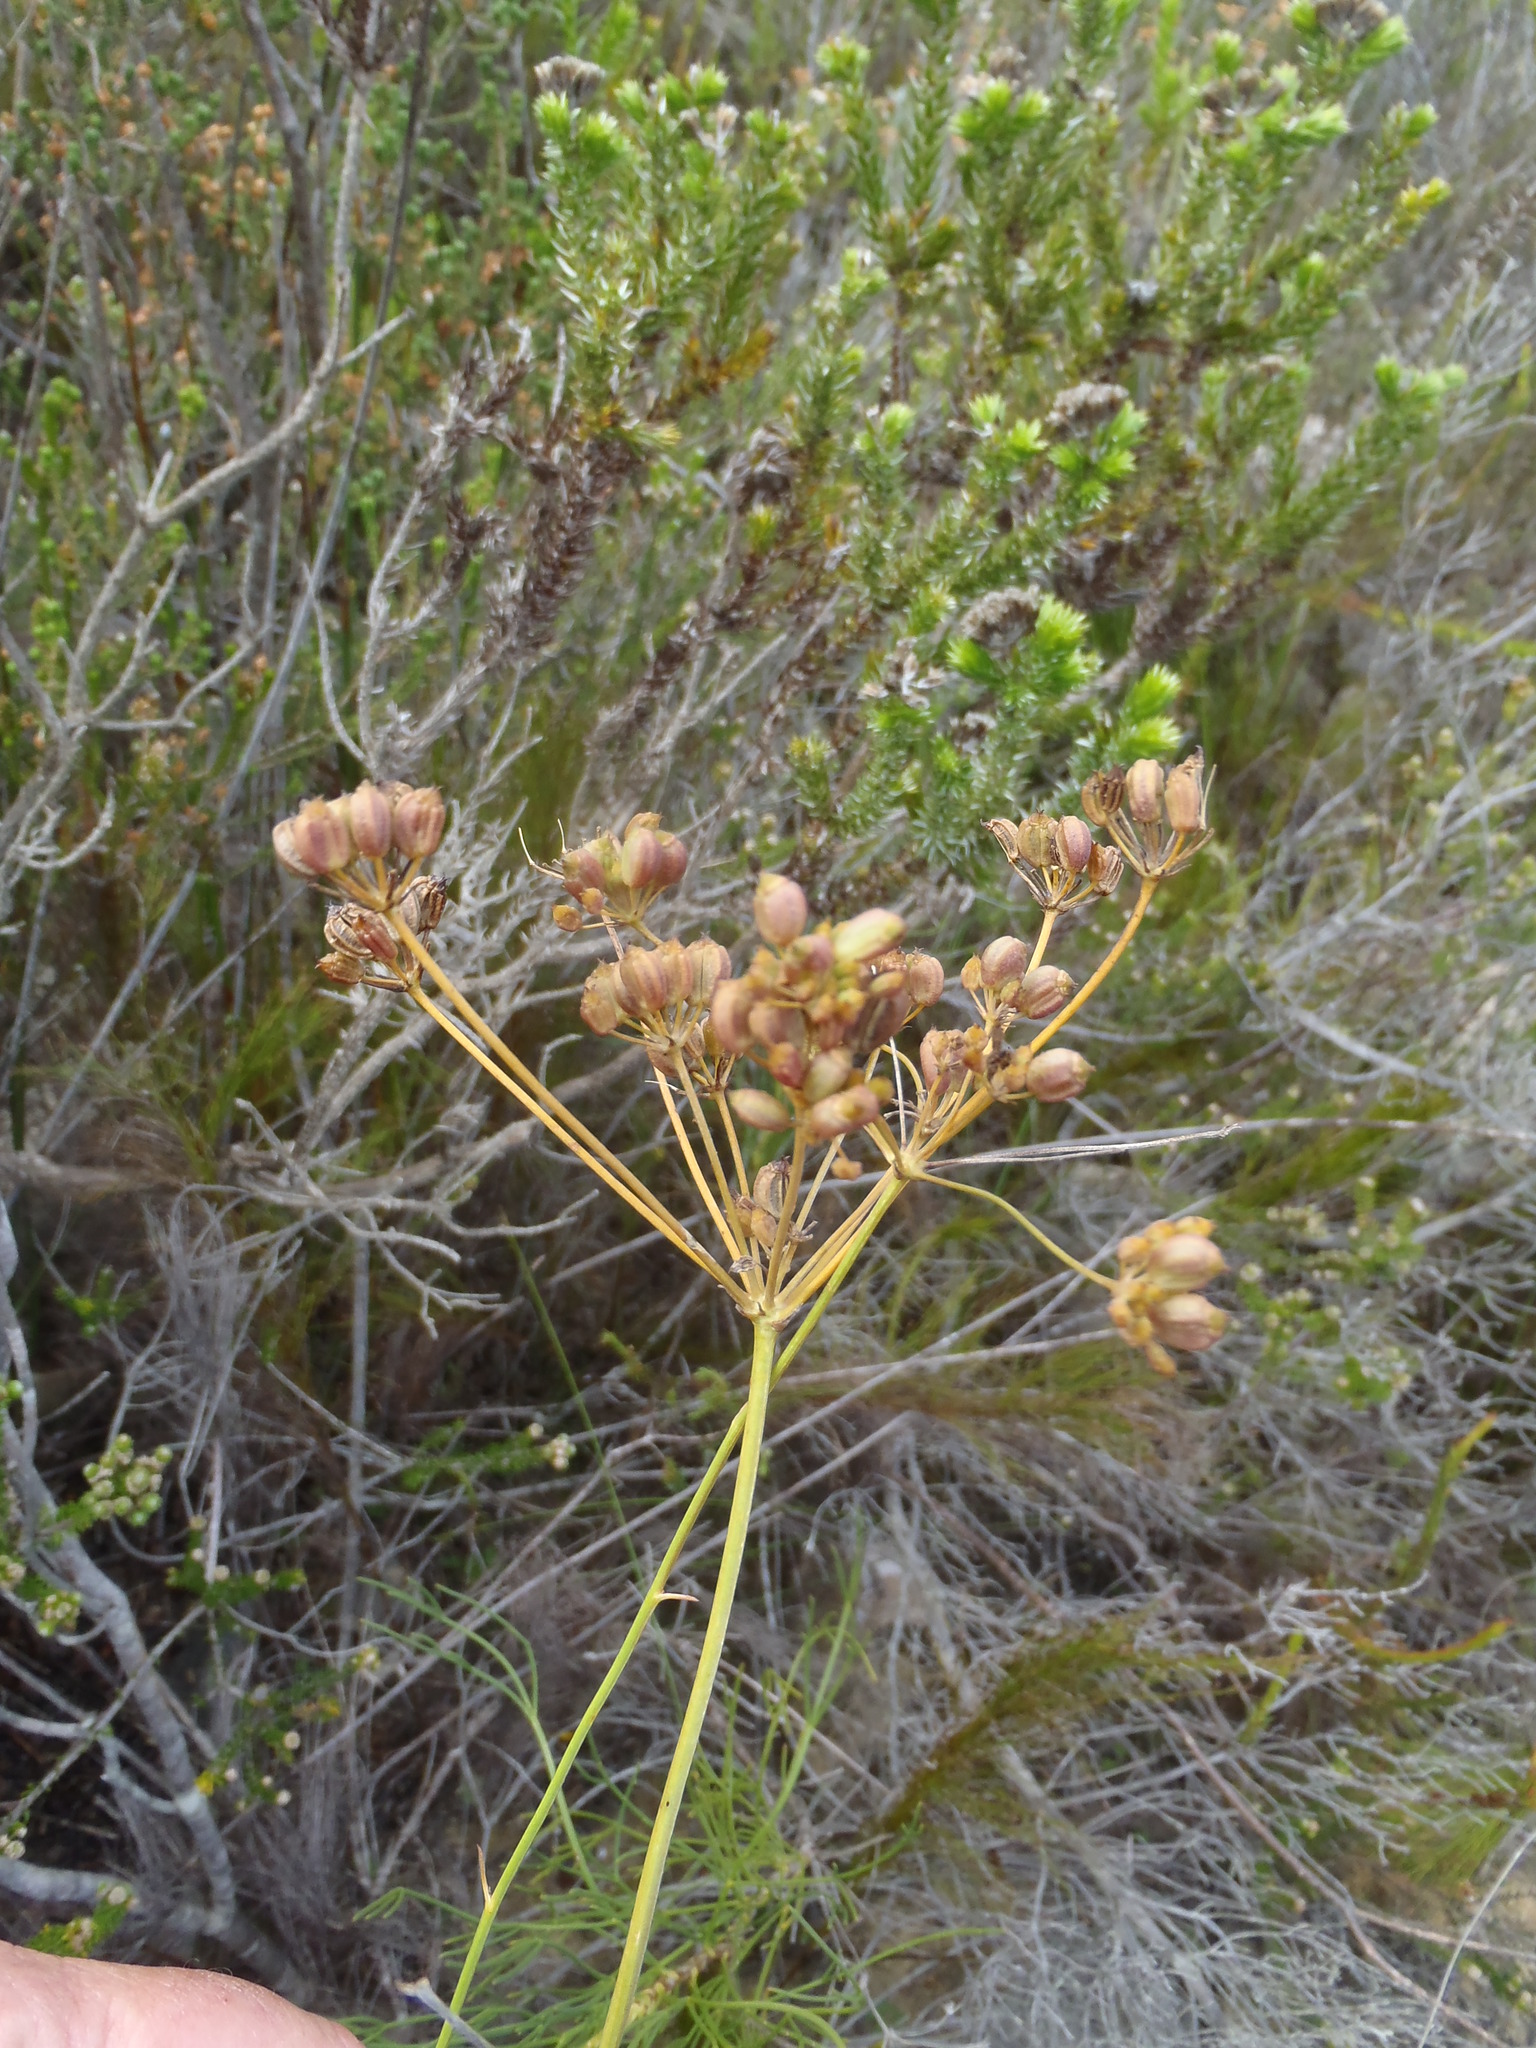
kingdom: Plantae
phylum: Tracheophyta
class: Magnoliopsida
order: Apiales
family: Apiaceae
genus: Anginon
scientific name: Anginon swellendamense
